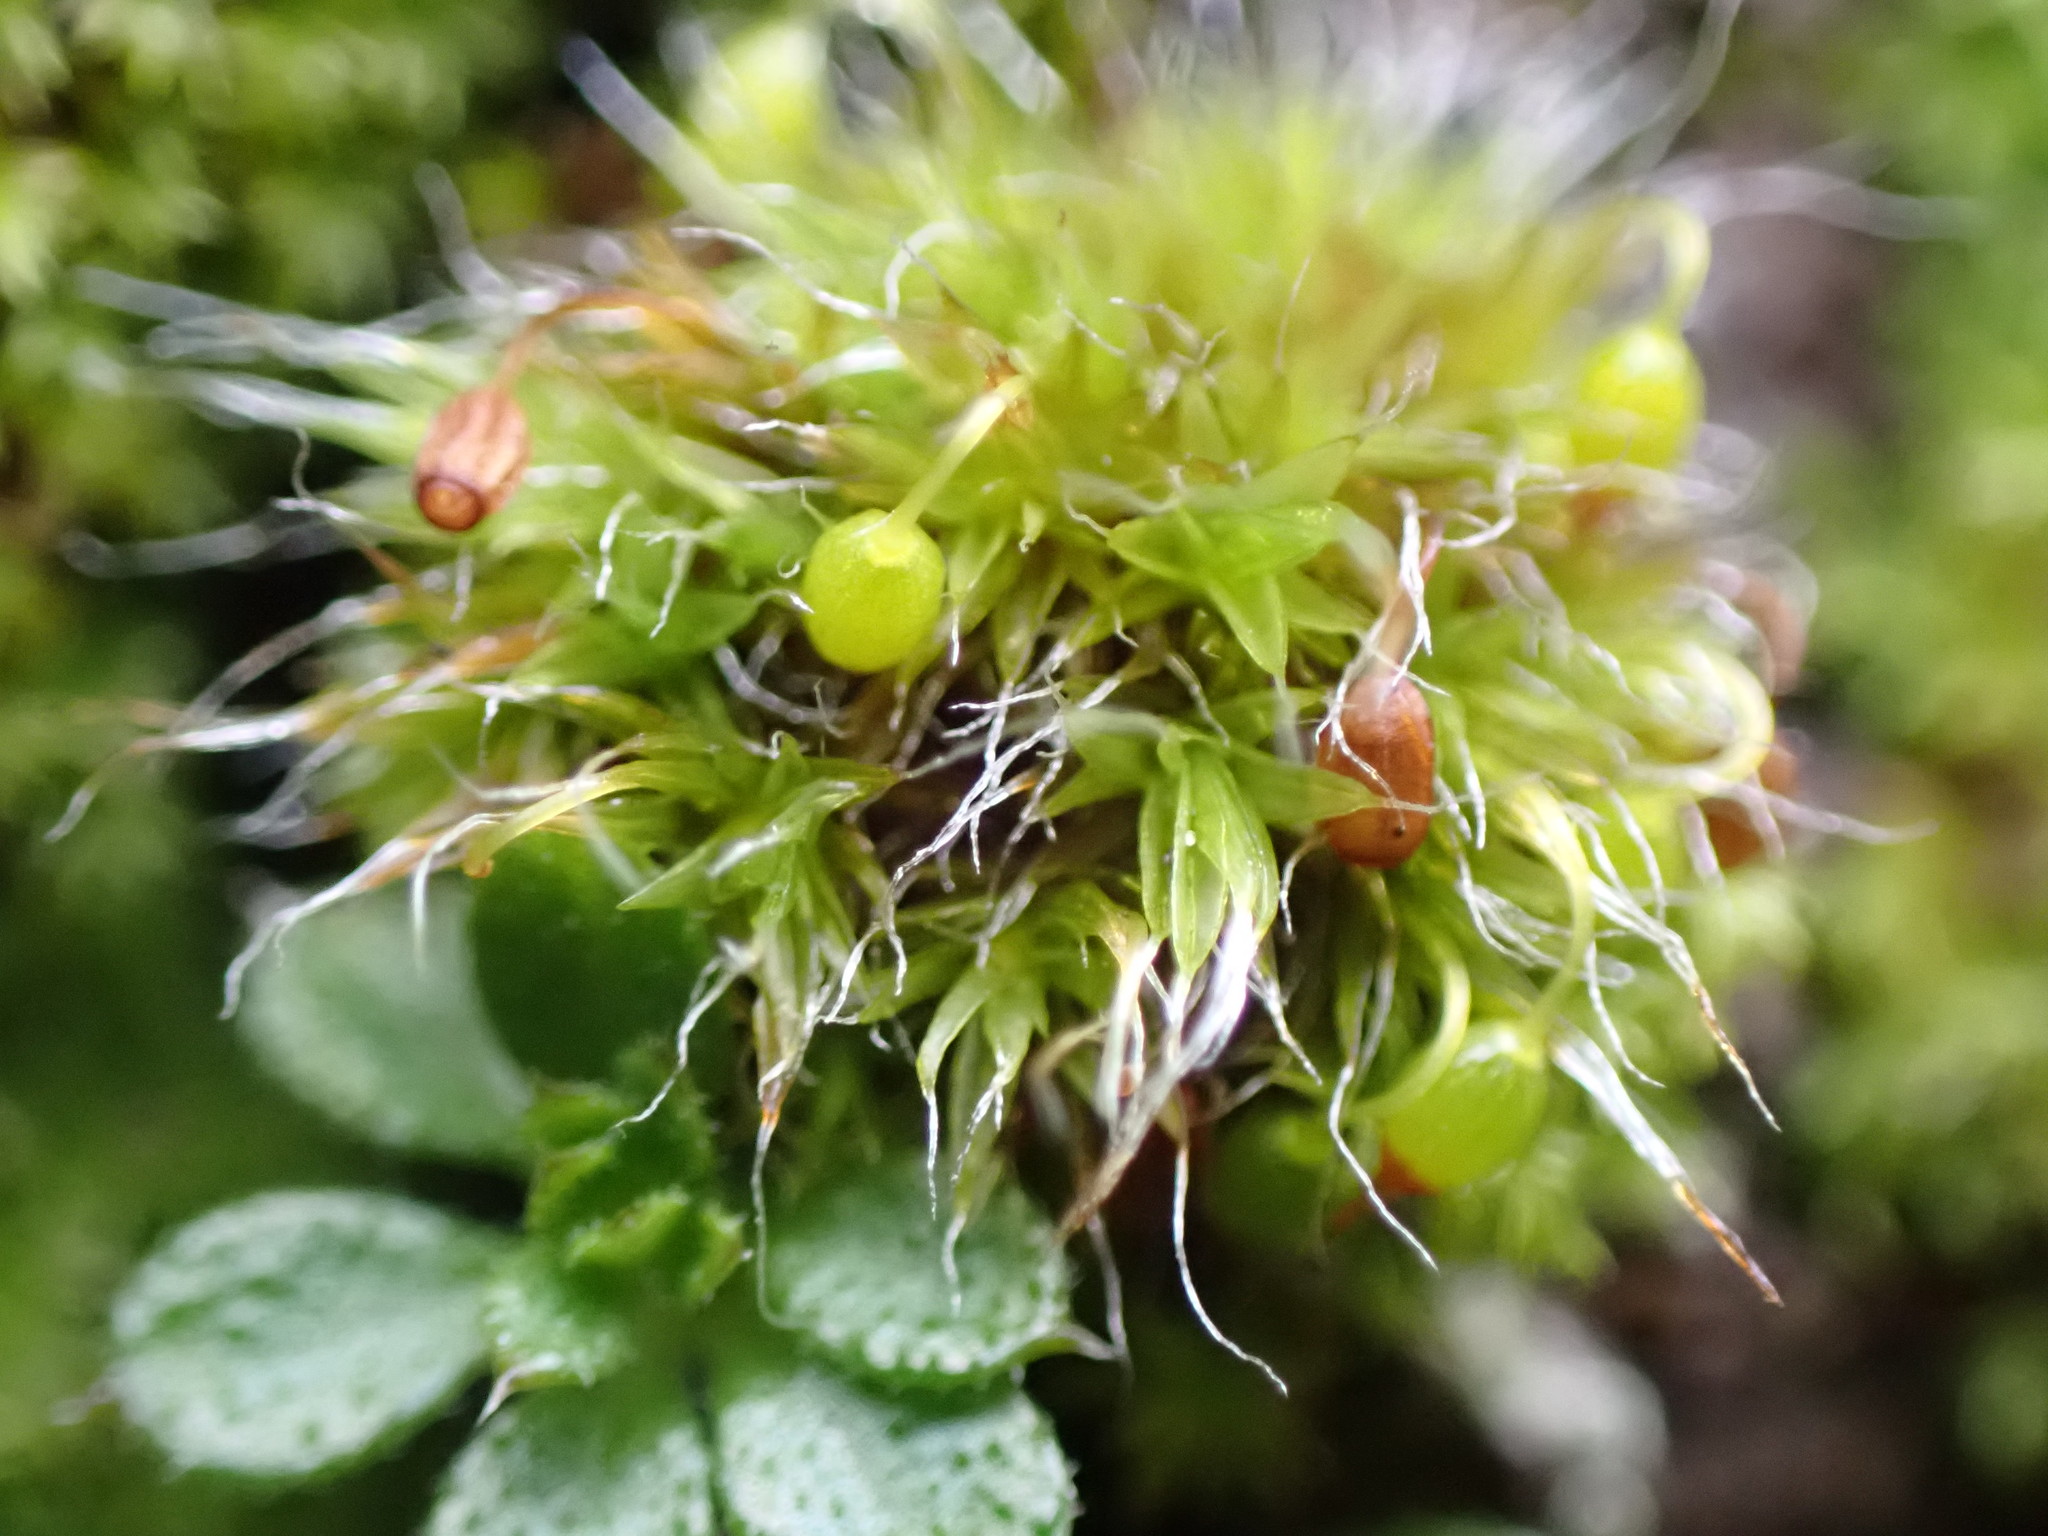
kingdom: Plantae
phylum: Bryophyta
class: Bryopsida
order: Grimmiales
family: Grimmiaceae
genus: Grimmia
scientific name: Grimmia pulvinata
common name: Grey-cushioned grimmia
